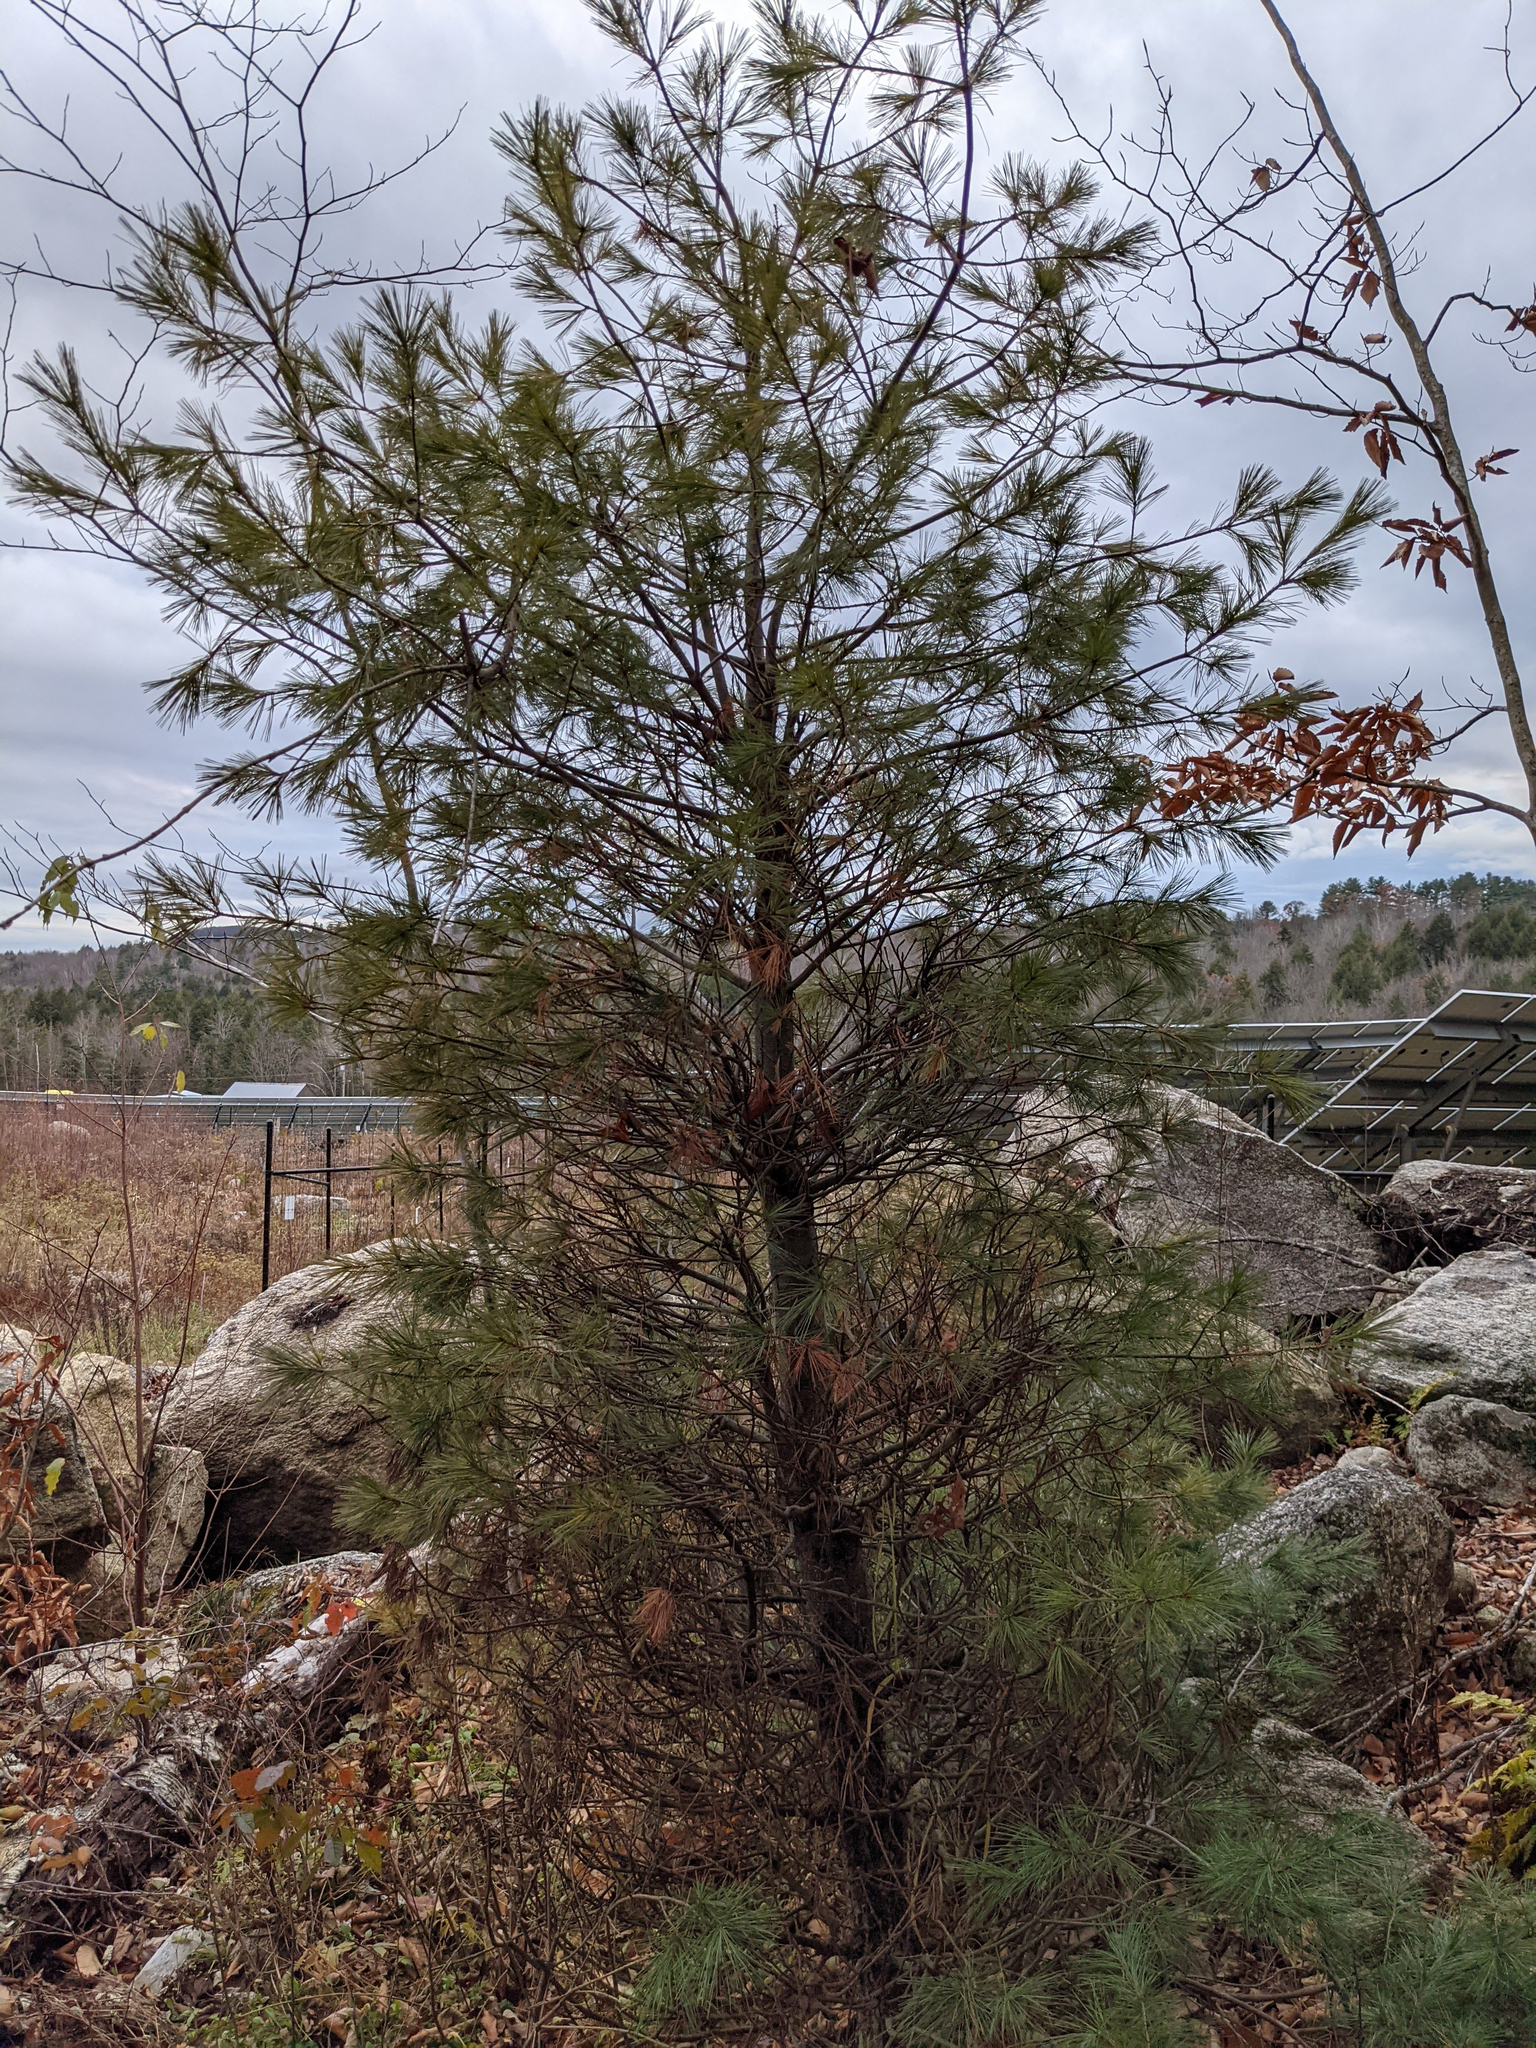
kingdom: Plantae
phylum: Tracheophyta
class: Pinopsida
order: Pinales
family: Pinaceae
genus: Pinus
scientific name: Pinus strobus
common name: Weymouth pine
